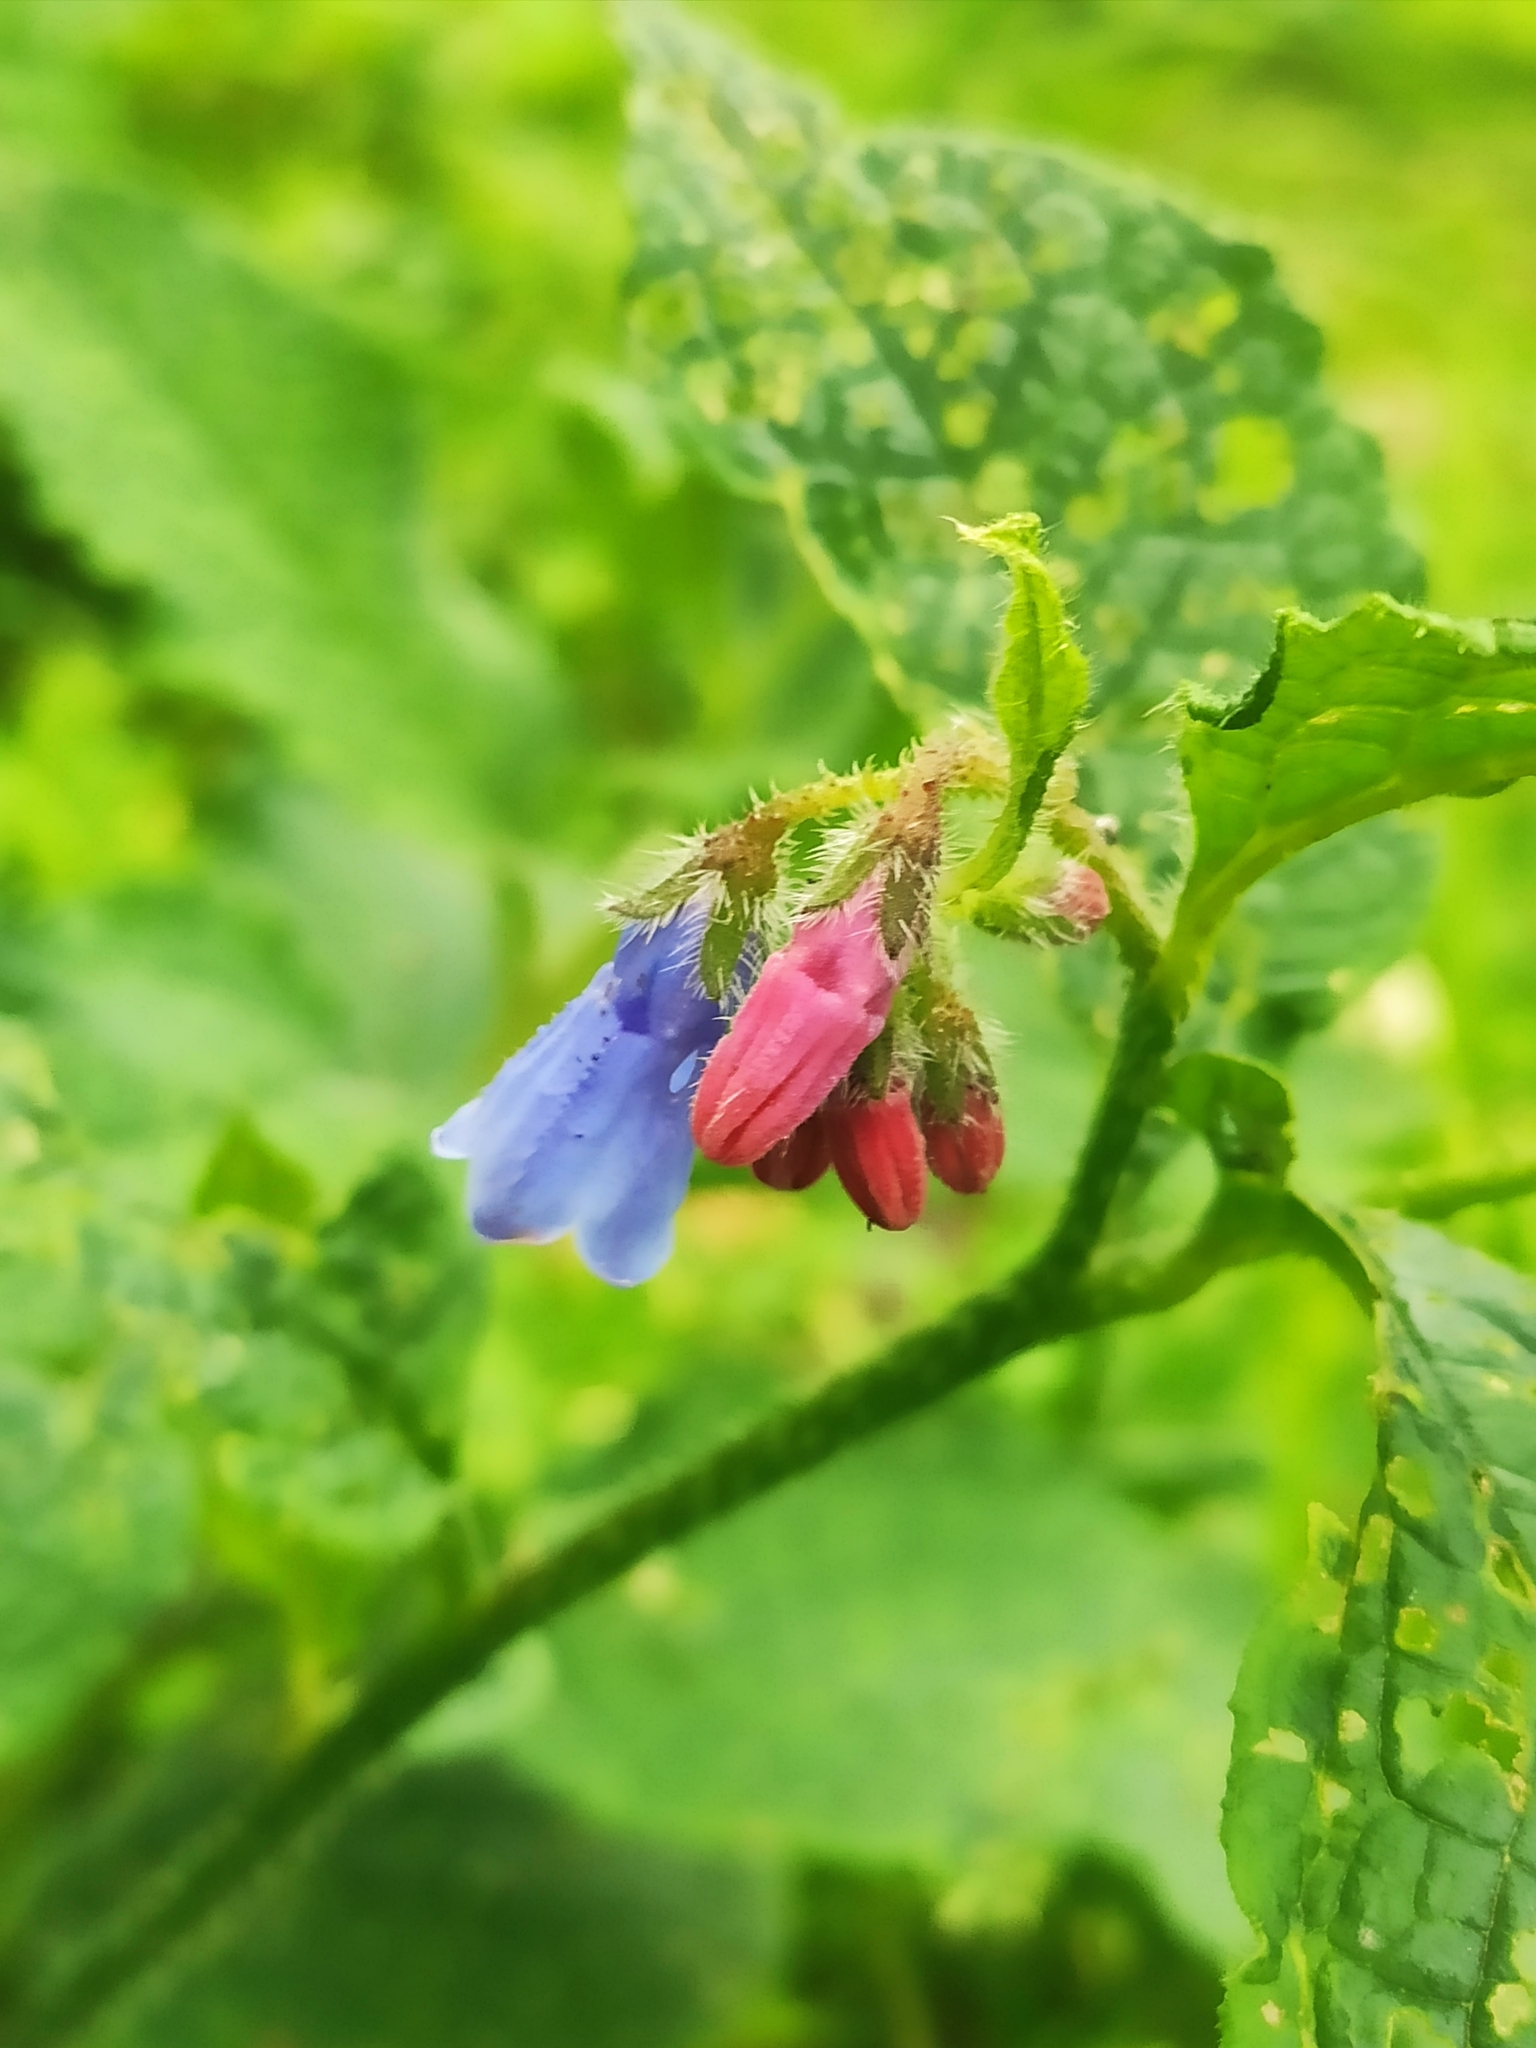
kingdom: Plantae
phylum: Tracheophyta
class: Magnoliopsida
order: Boraginales
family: Boraginaceae
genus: Symphytum
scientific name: Symphytum asperum
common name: Prickly comfrey
